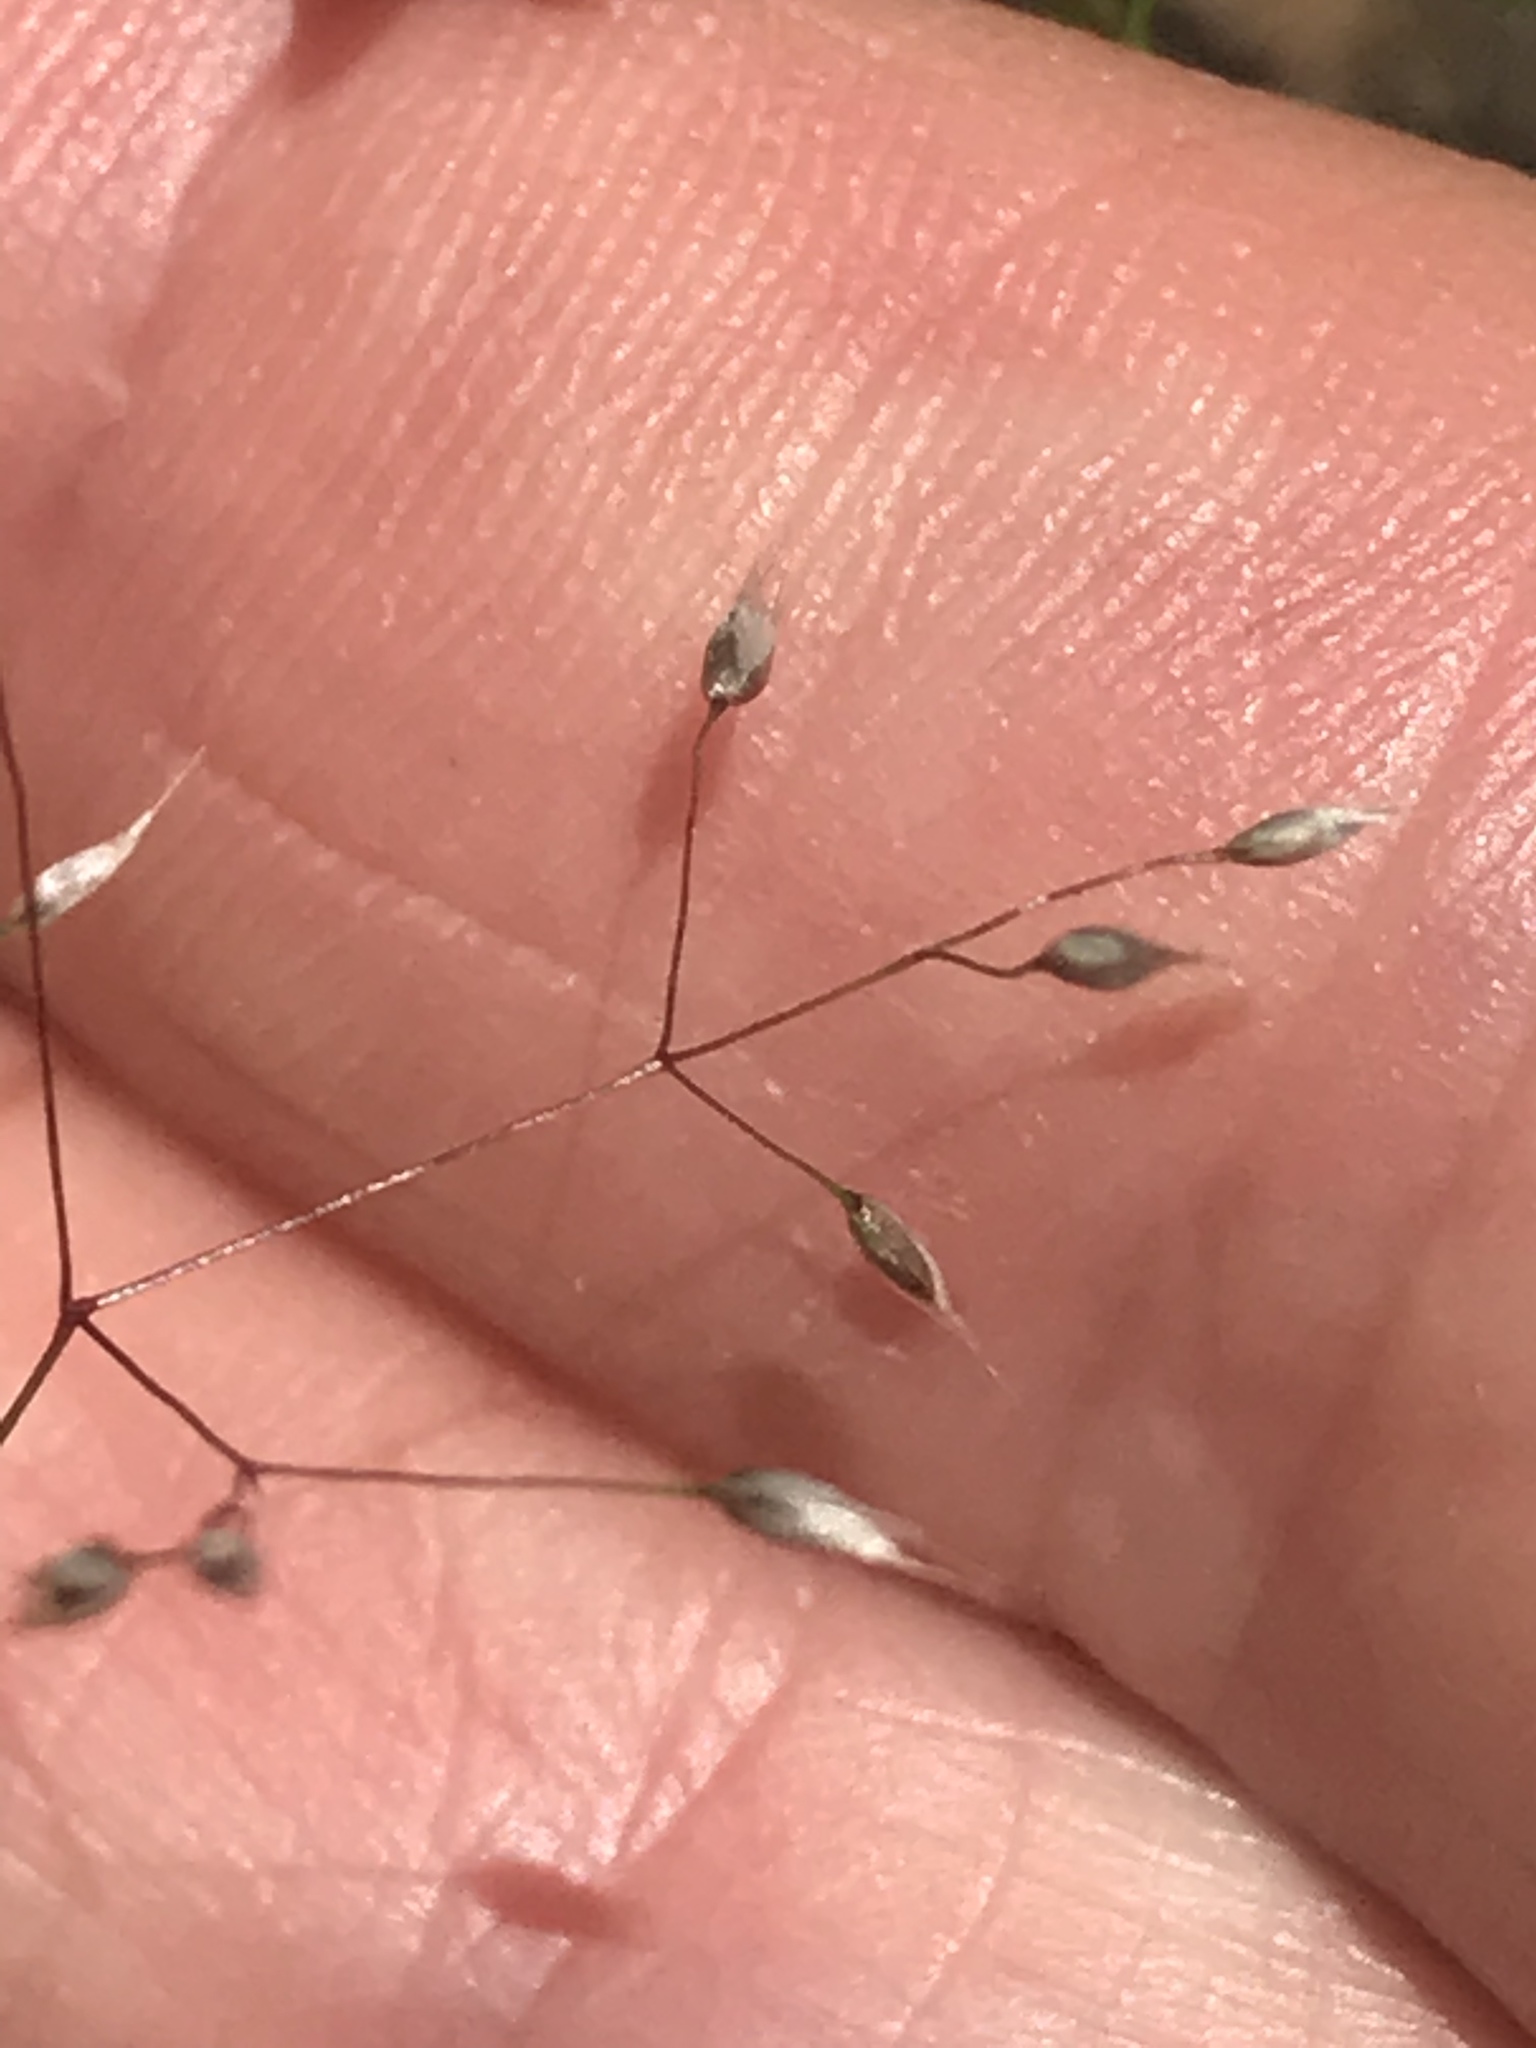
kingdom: Plantae
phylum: Tracheophyta
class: Liliopsida
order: Poales
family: Poaceae
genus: Aira
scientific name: Aira elegans
